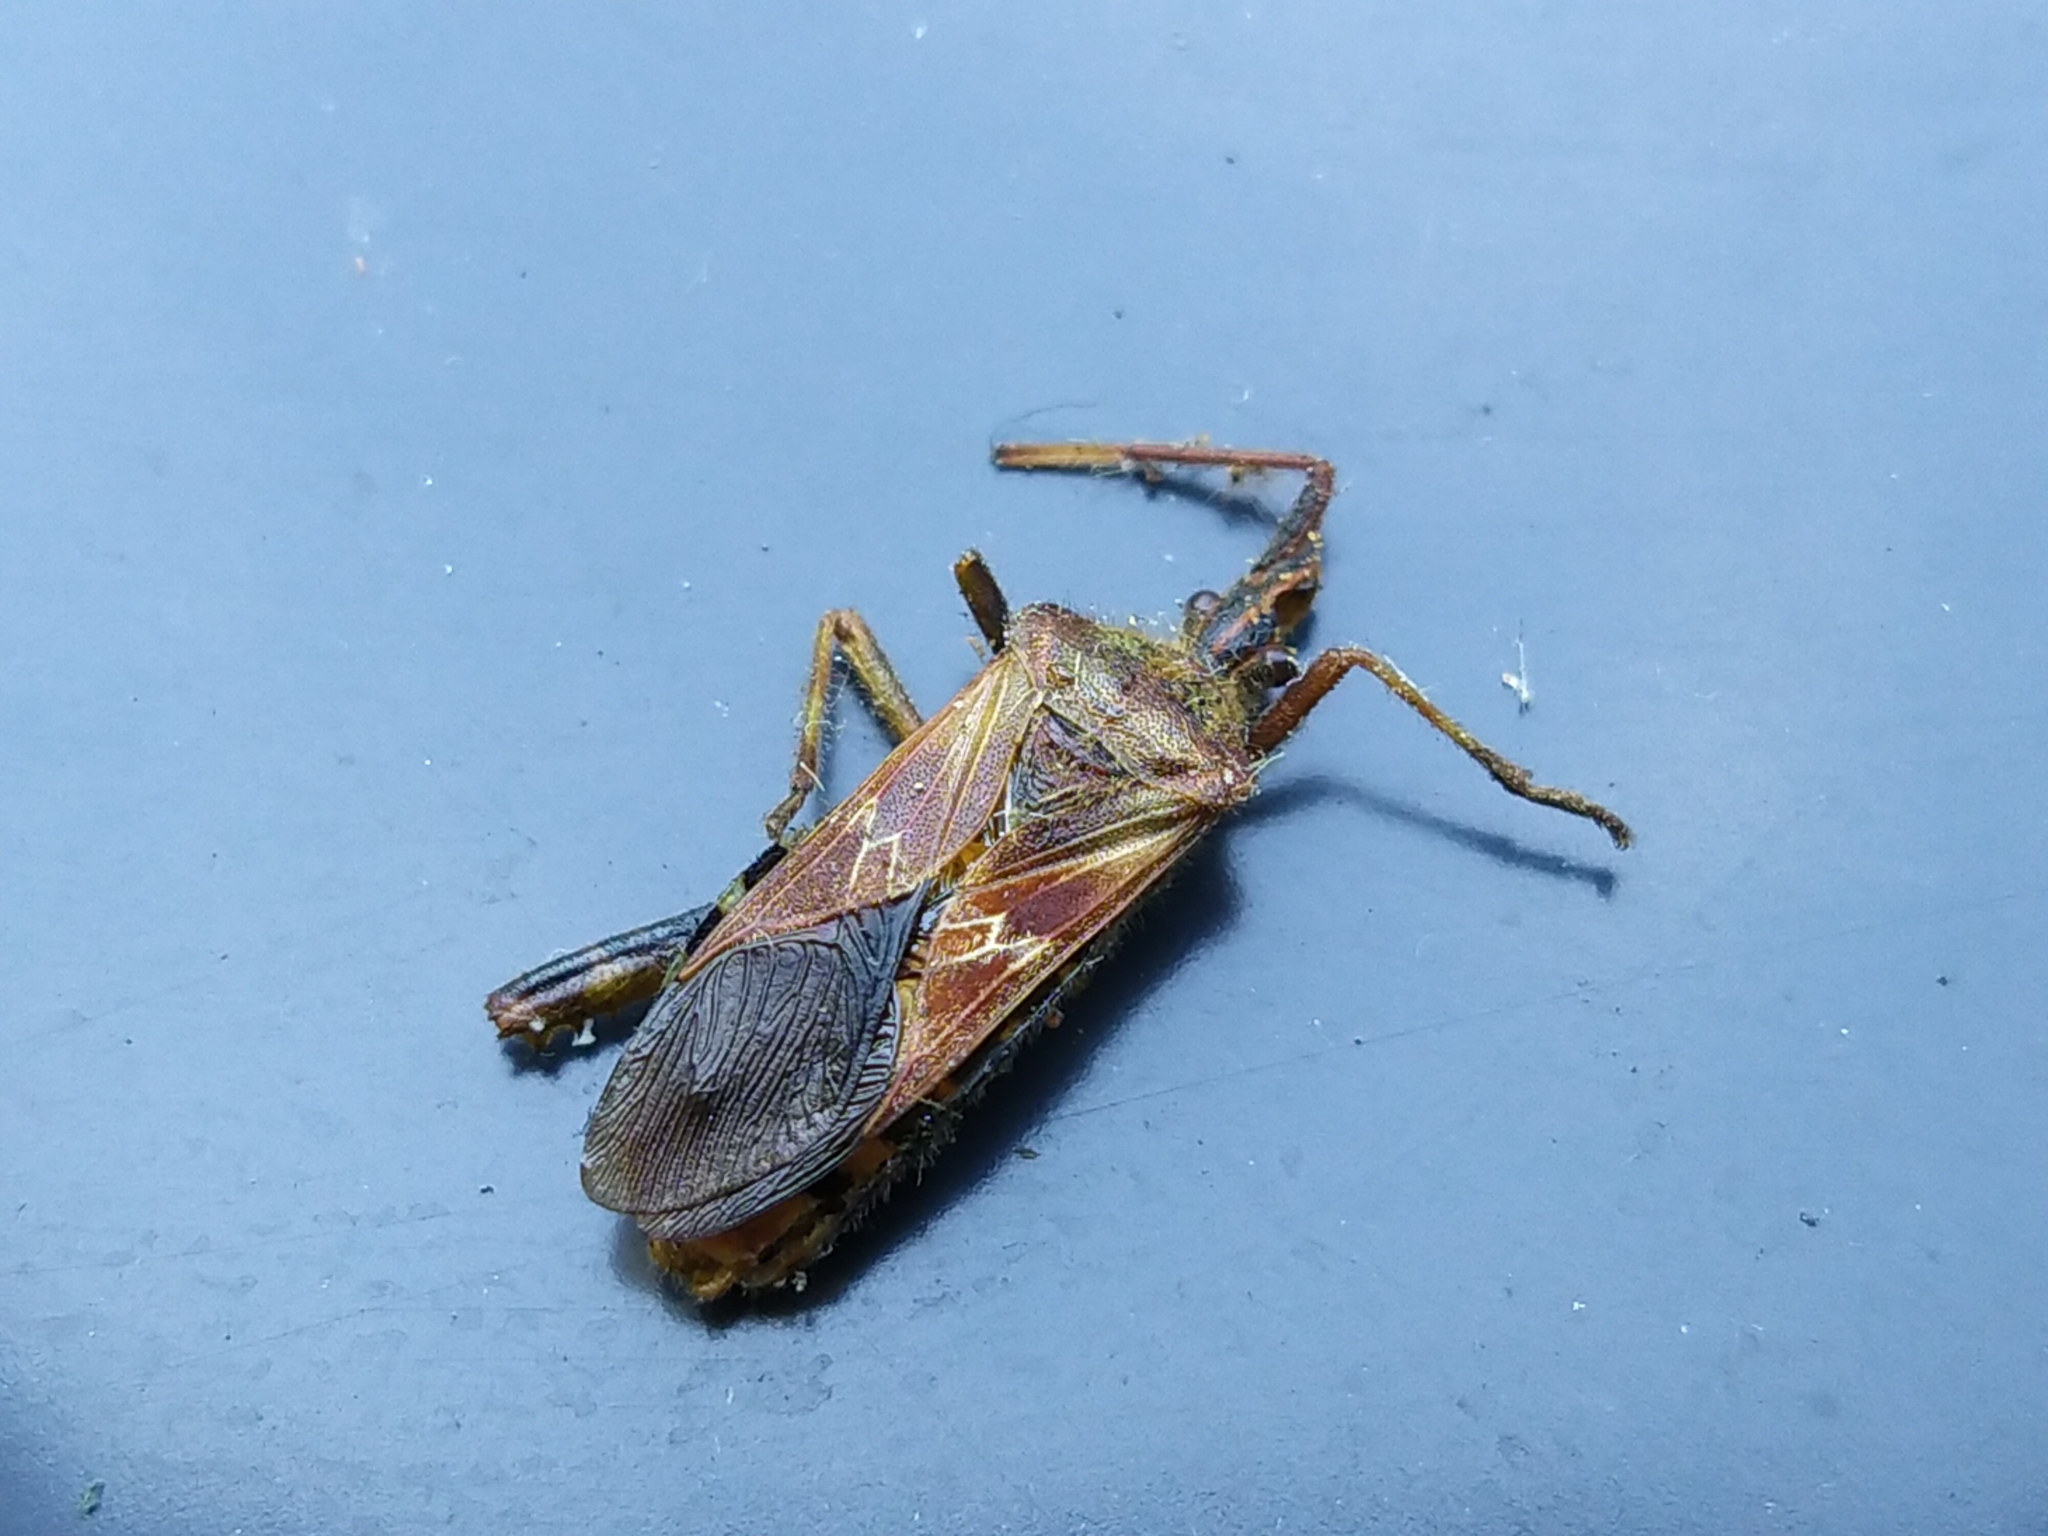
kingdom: Animalia
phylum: Arthropoda
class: Insecta
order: Hemiptera
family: Coreidae
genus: Leptoglossus
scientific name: Leptoglossus occidentalis
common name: Western conifer-seed bug
